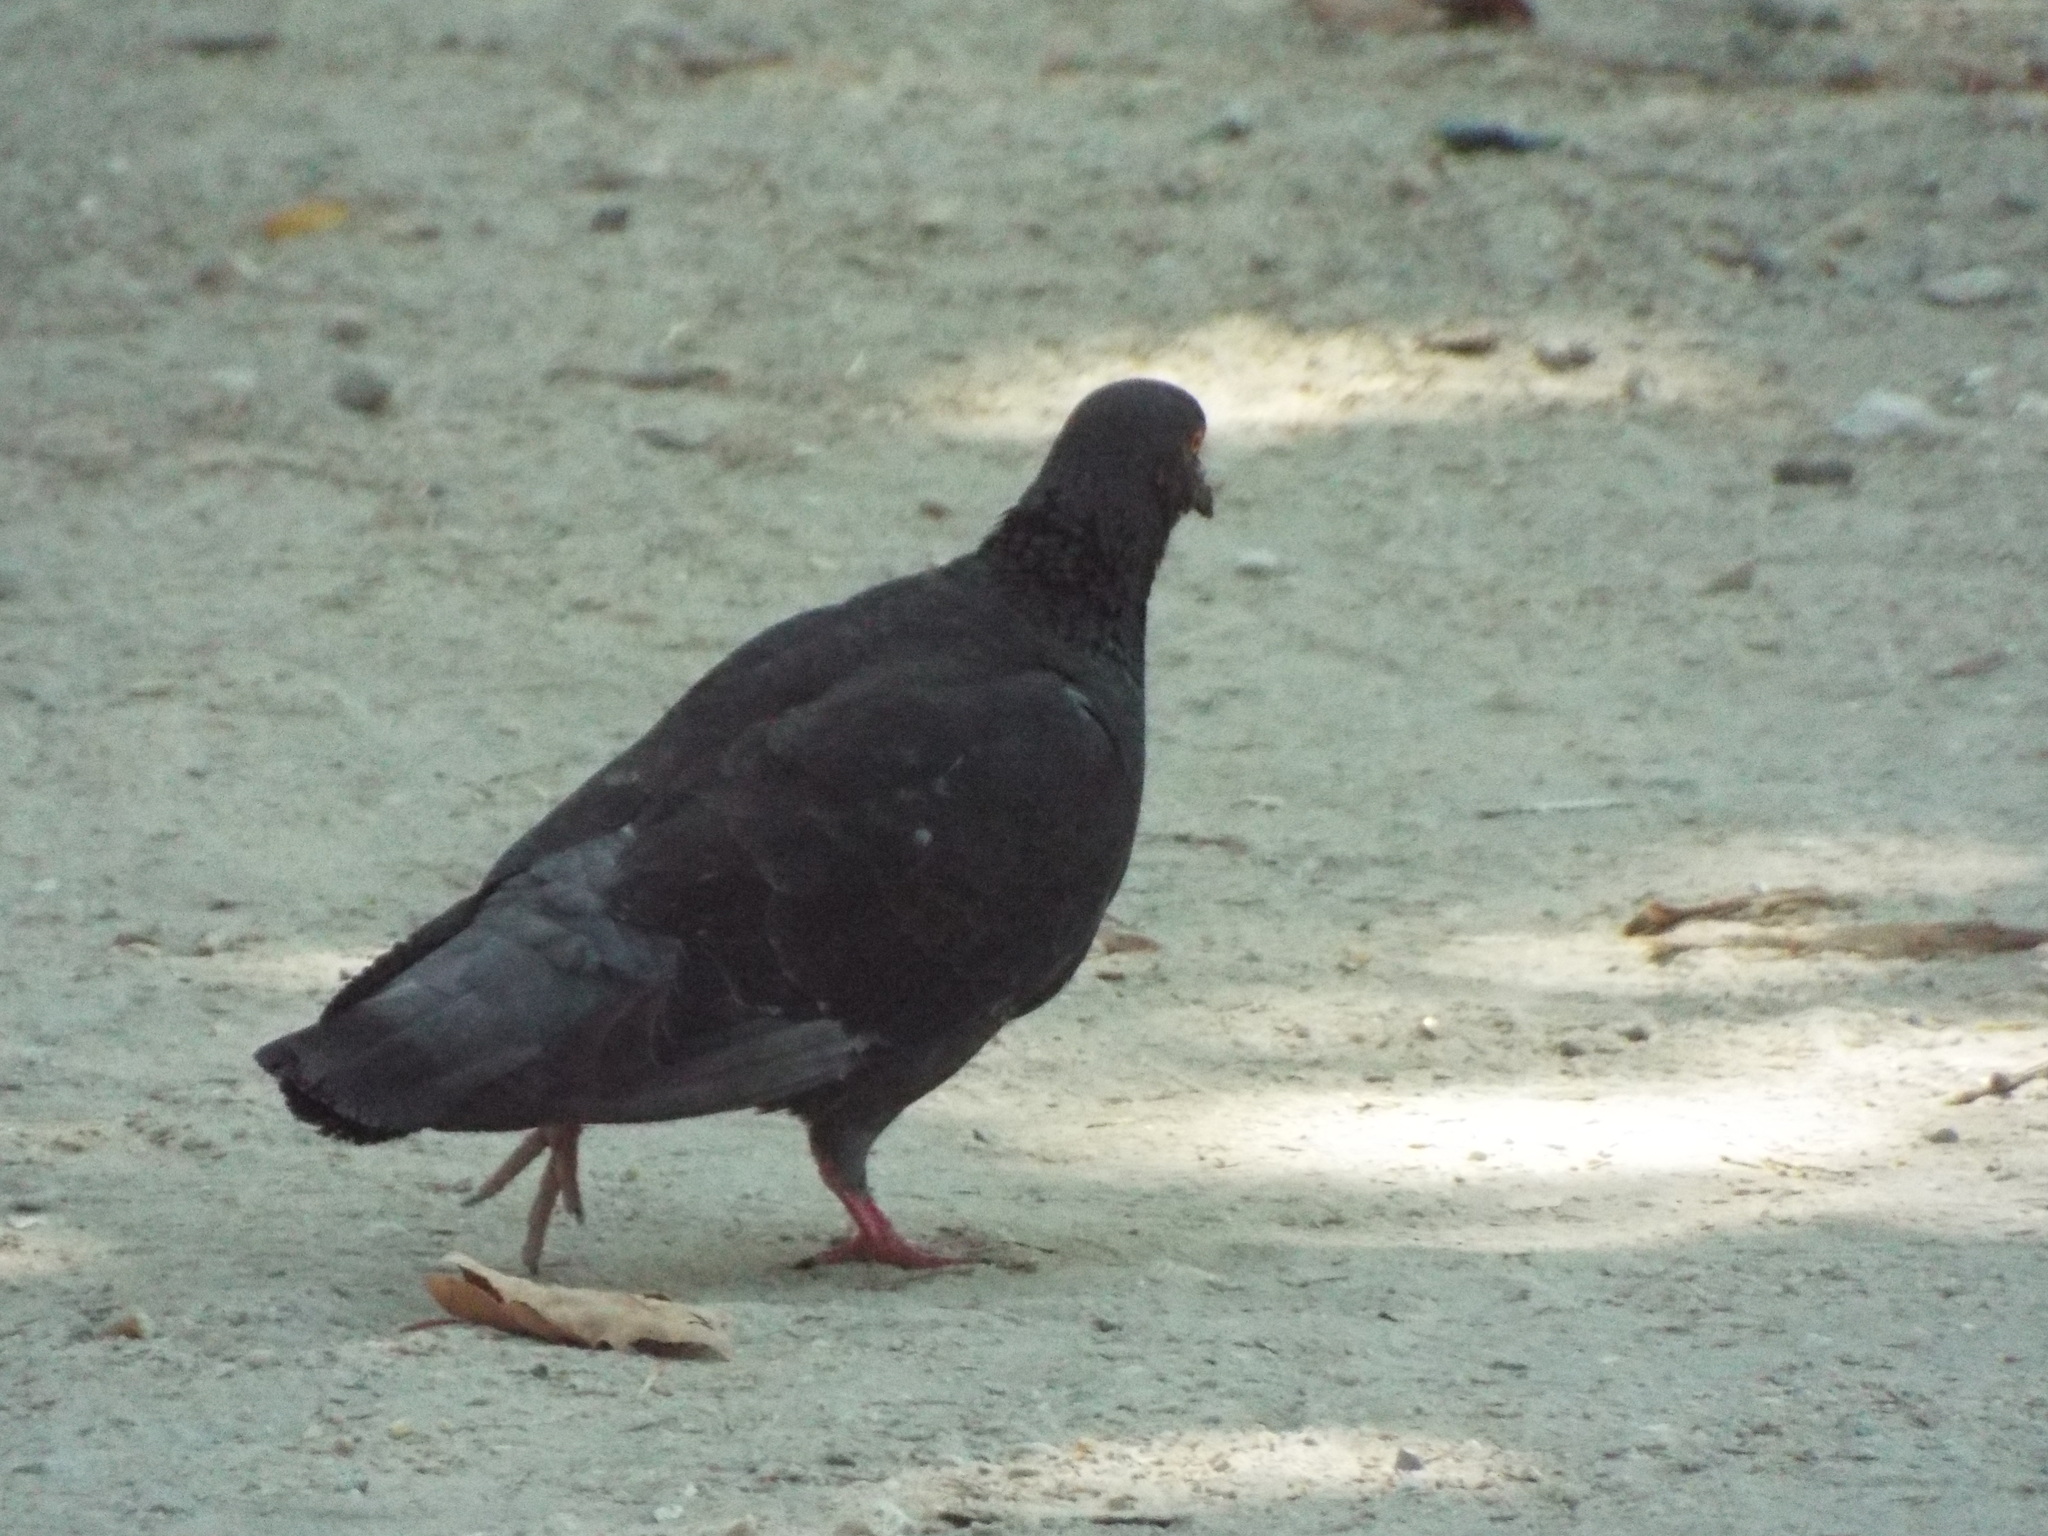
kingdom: Animalia
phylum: Chordata
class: Aves
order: Columbiformes
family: Columbidae
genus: Columba
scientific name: Columba livia
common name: Rock pigeon
